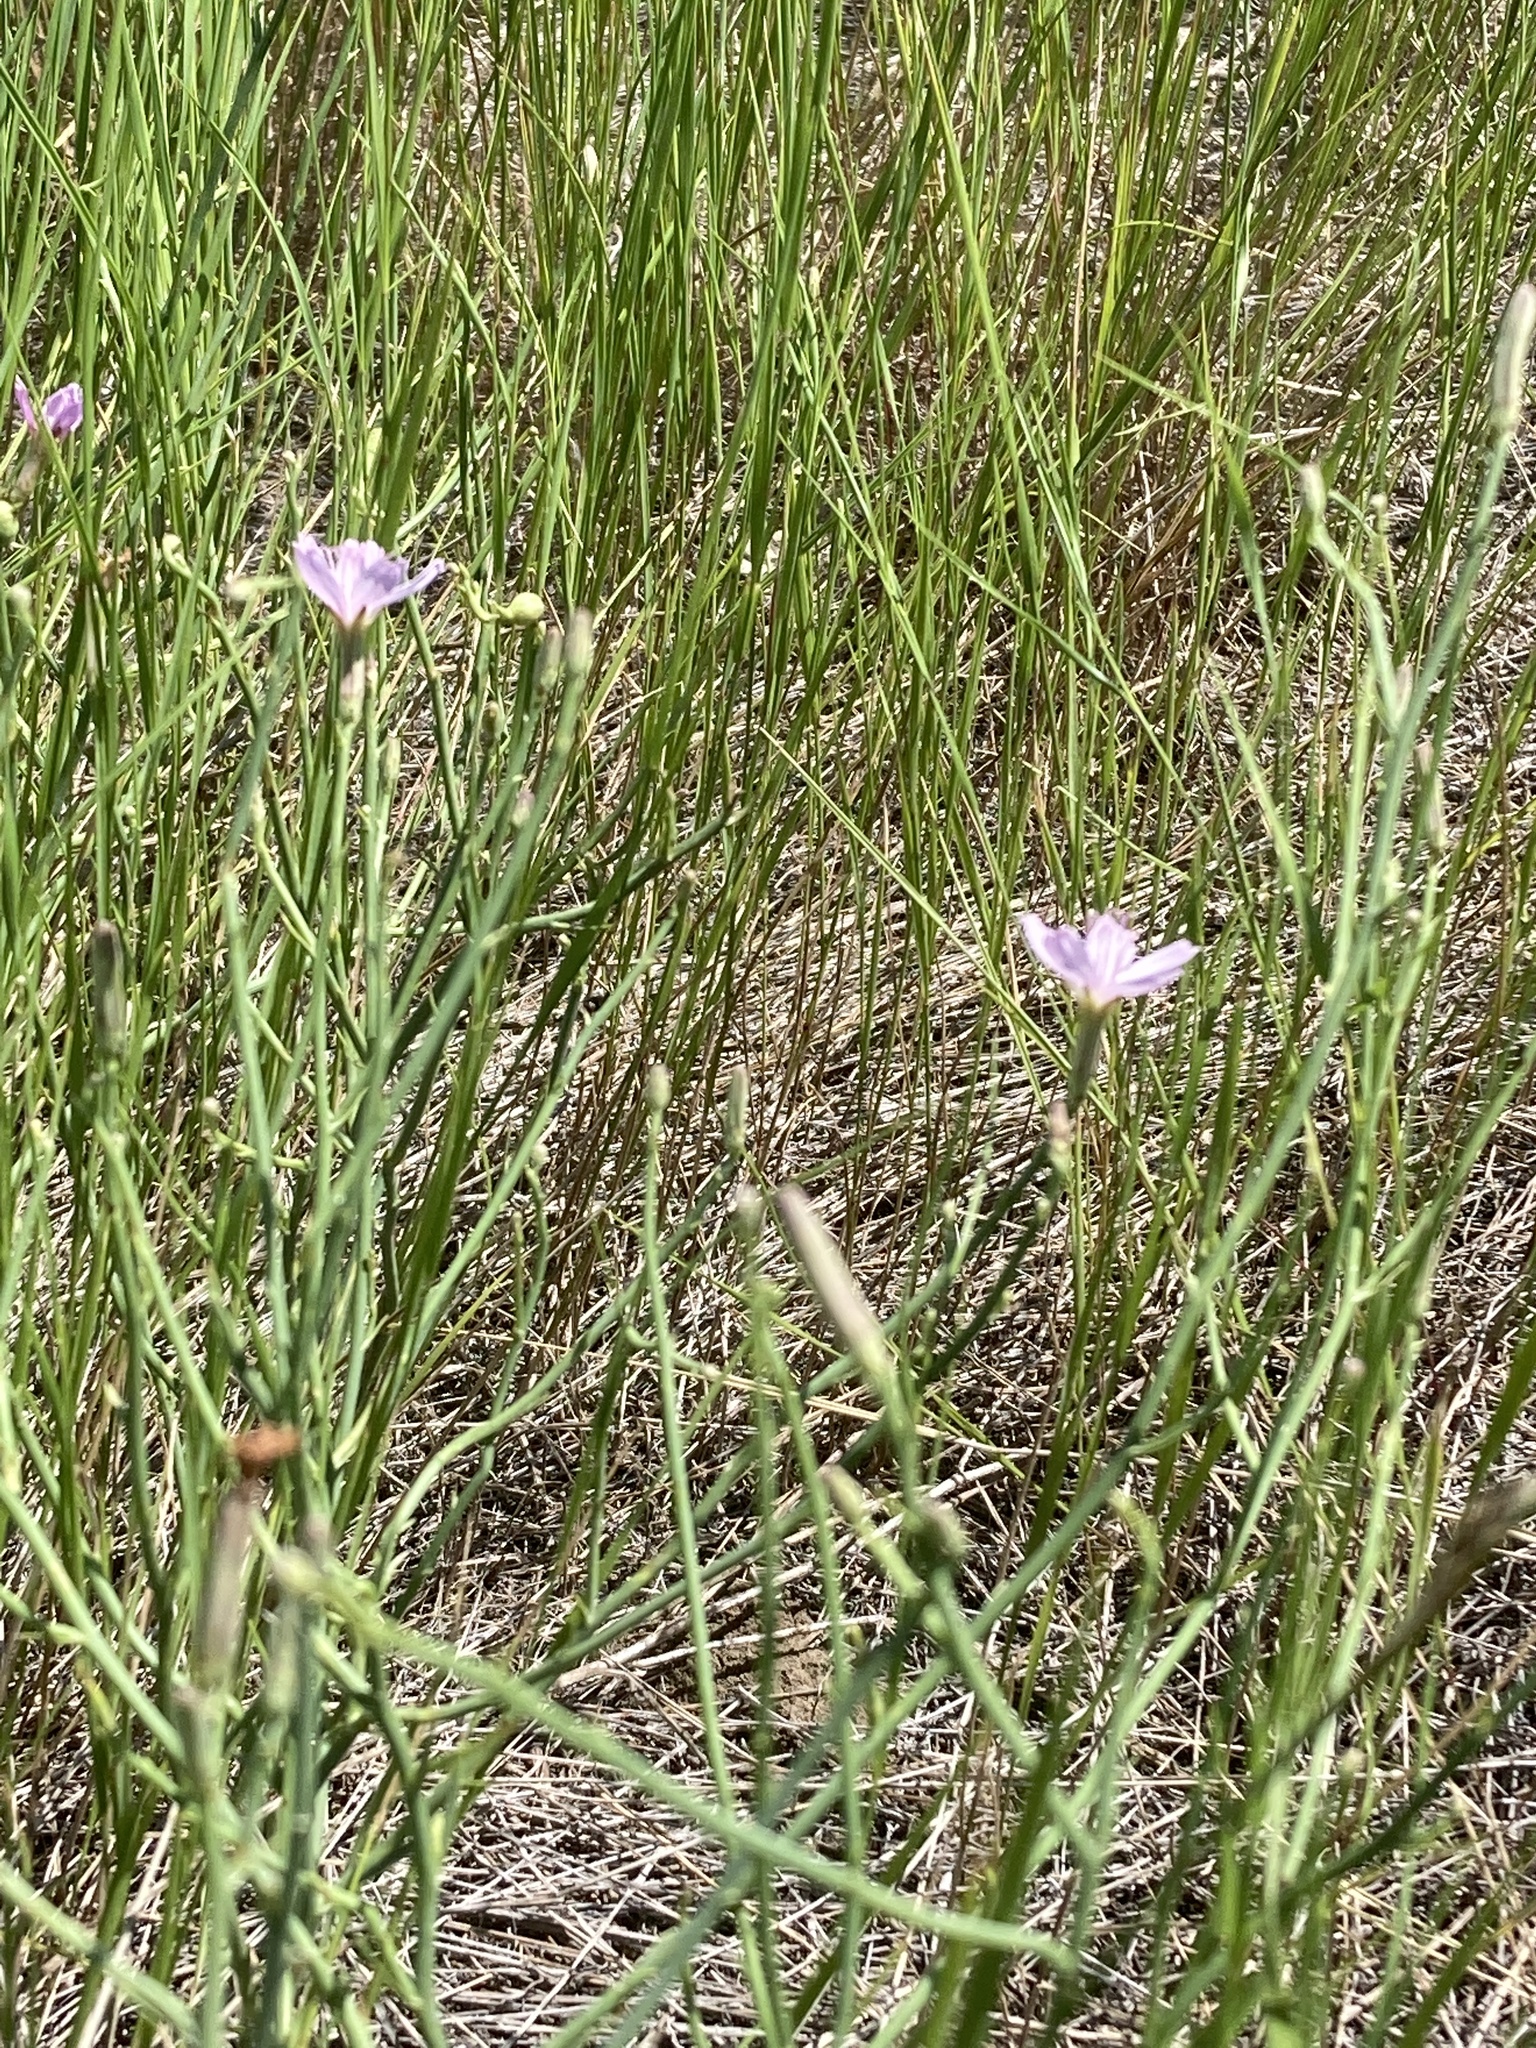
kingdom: Plantae
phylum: Tracheophyta
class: Magnoliopsida
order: Asterales
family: Asteraceae
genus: Lygodesmia
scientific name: Lygodesmia juncea
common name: Common skeletonweed
